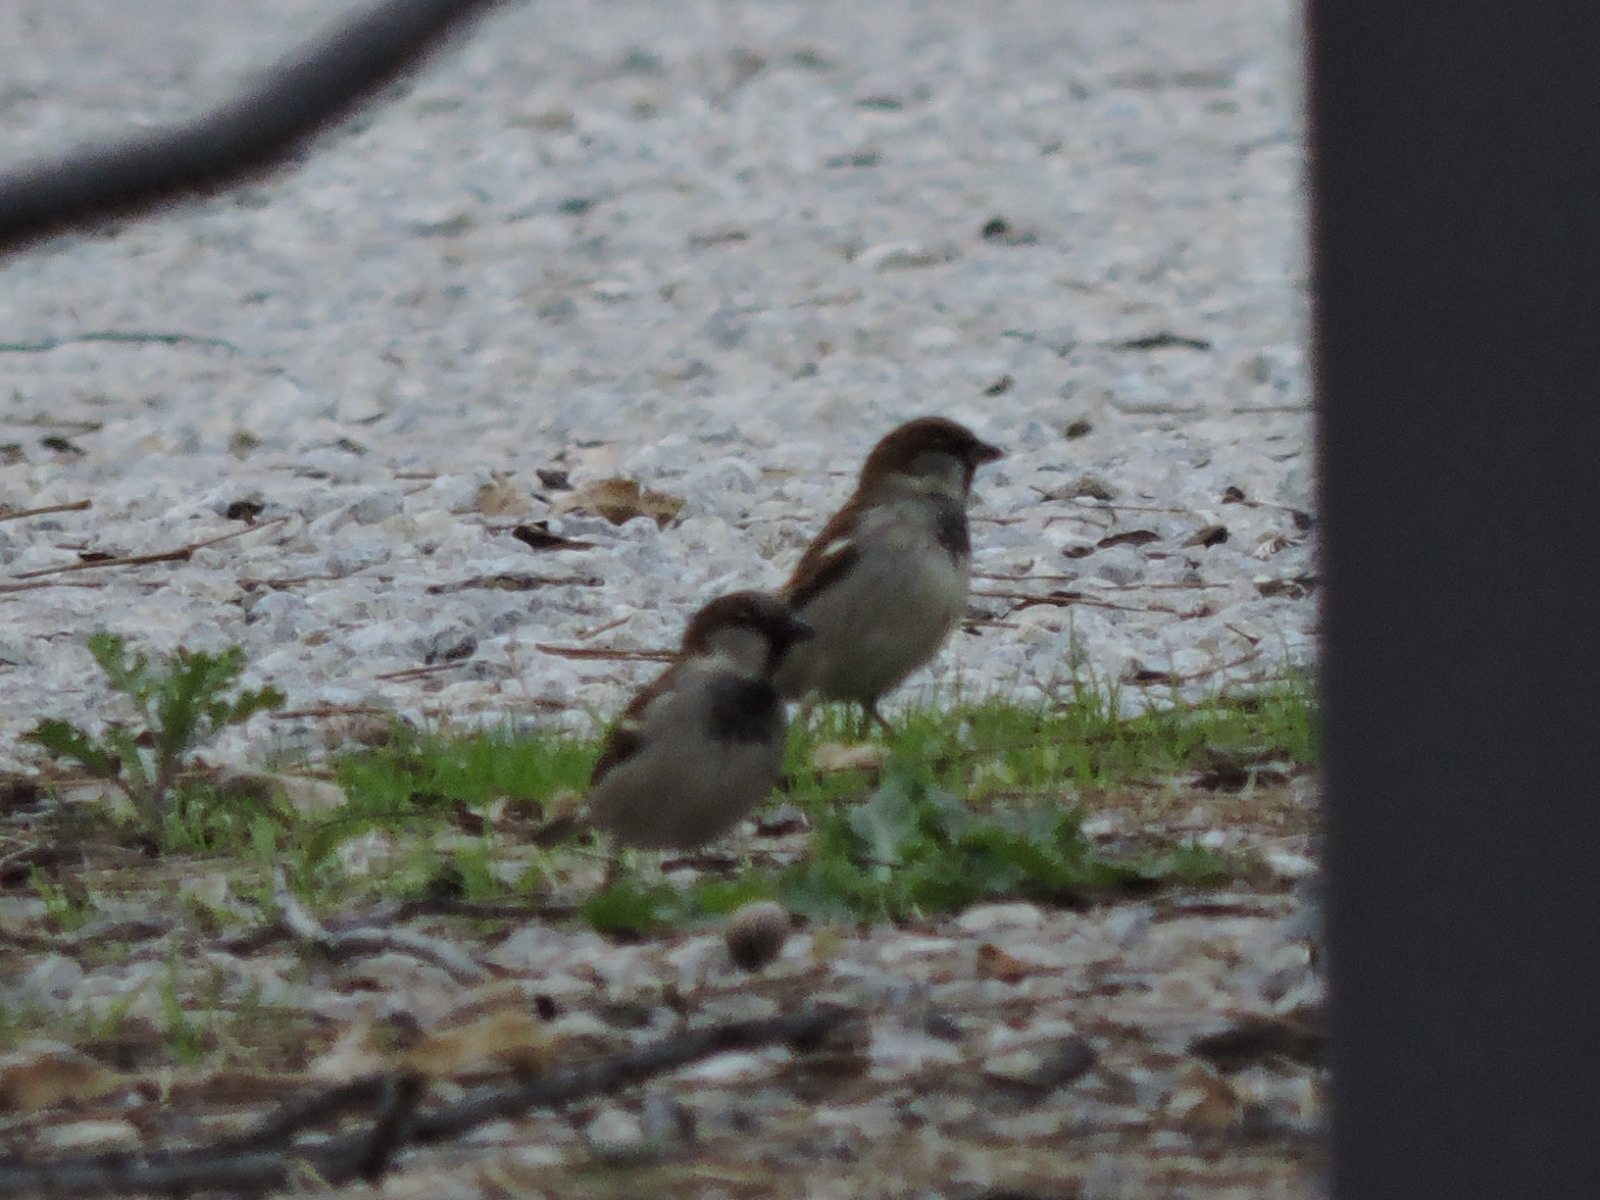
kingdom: Animalia
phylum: Chordata
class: Aves
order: Passeriformes
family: Passeridae
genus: Passer
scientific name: Passer domesticus
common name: House sparrow
